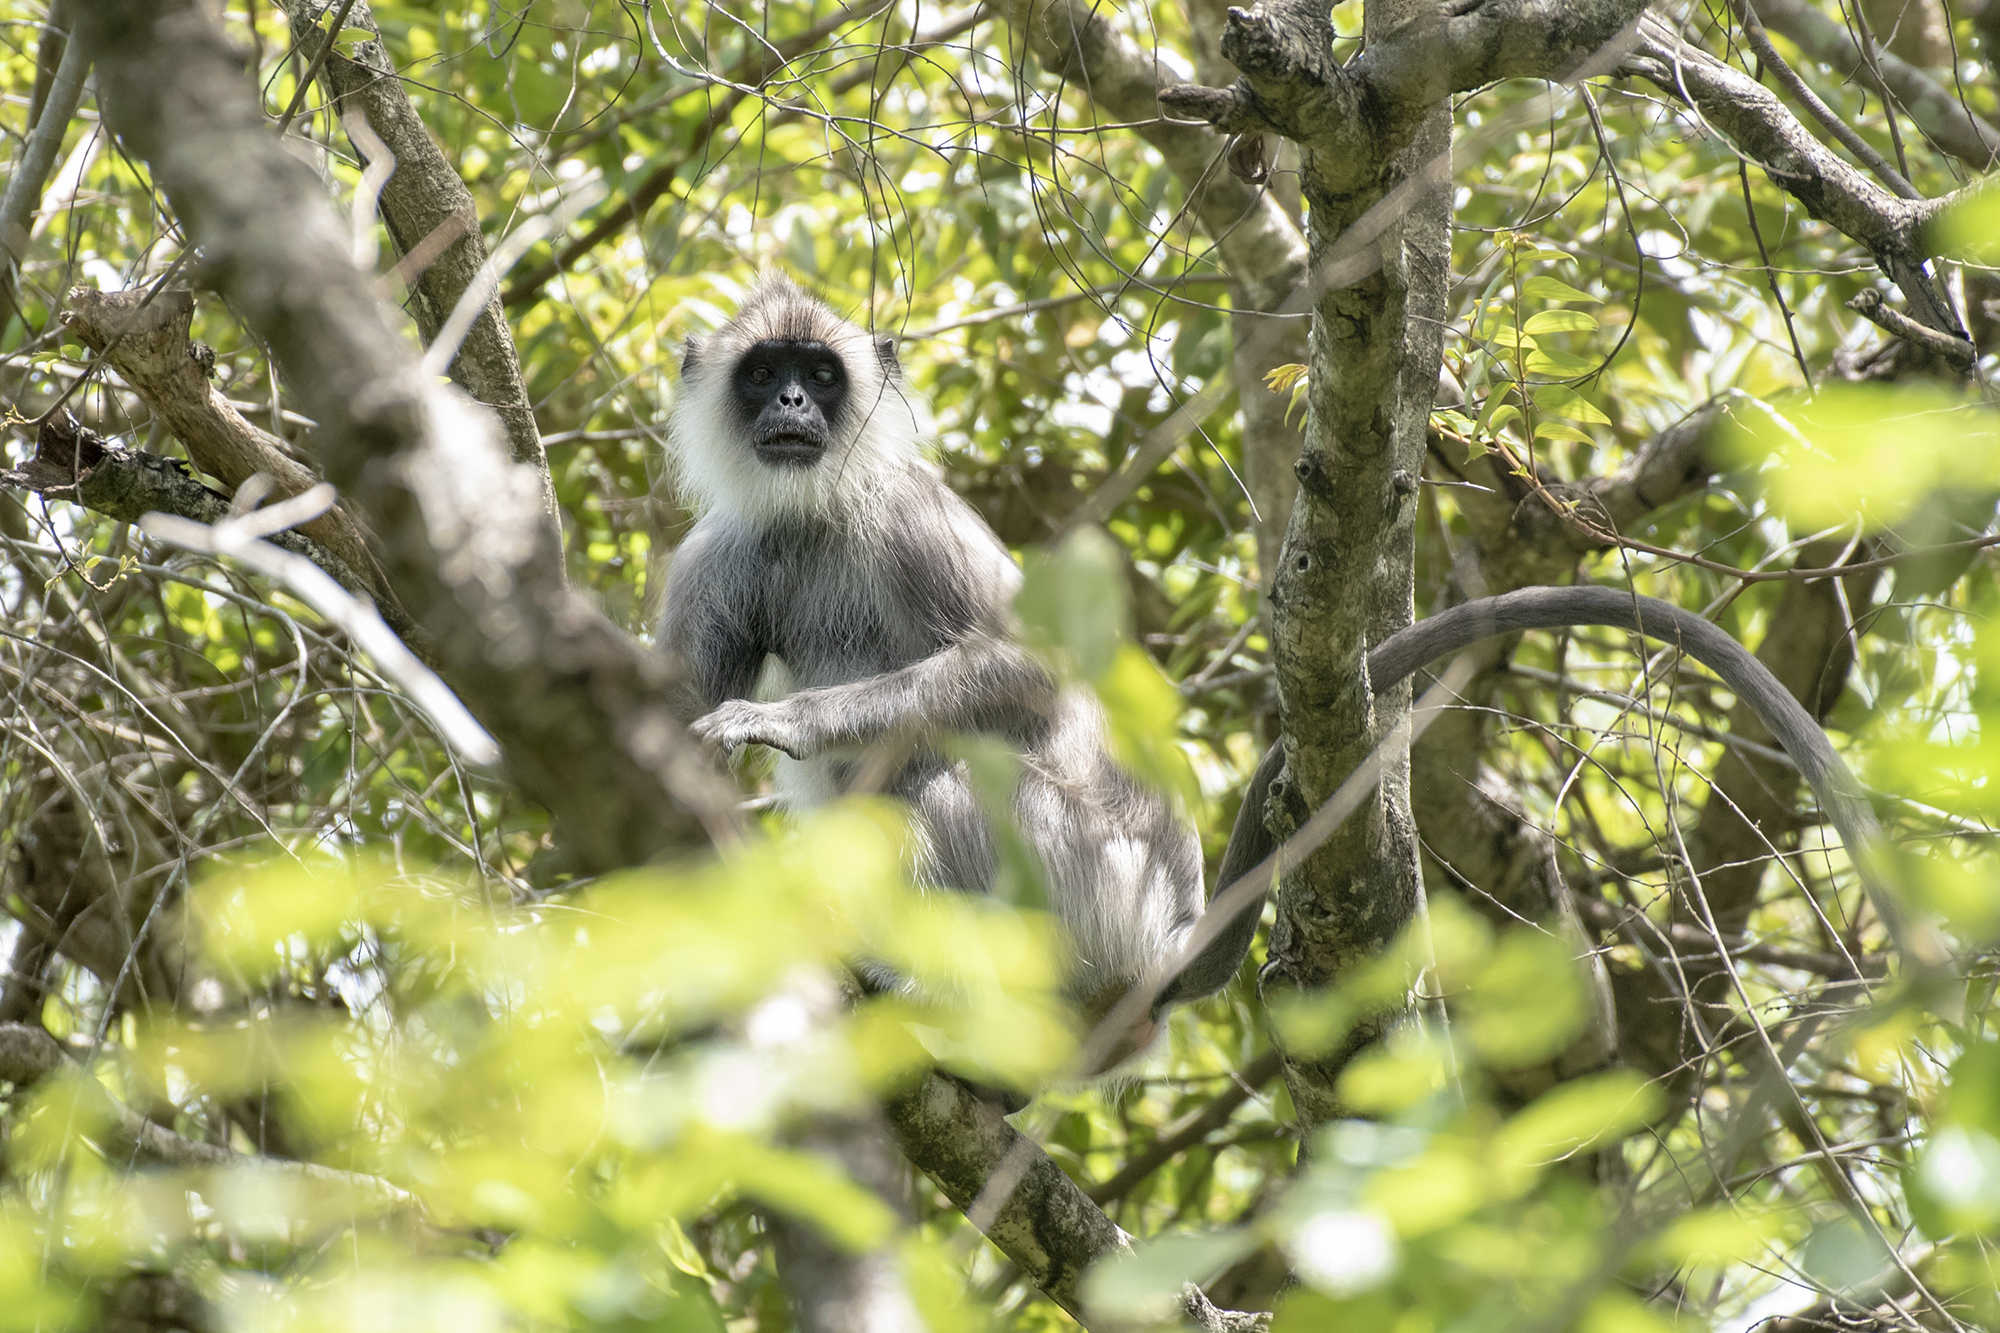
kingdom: Animalia
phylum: Chordata
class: Mammalia
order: Primates
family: Cercopithecidae
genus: Semnopithecus
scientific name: Semnopithecus priam
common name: Tufted gray langur
